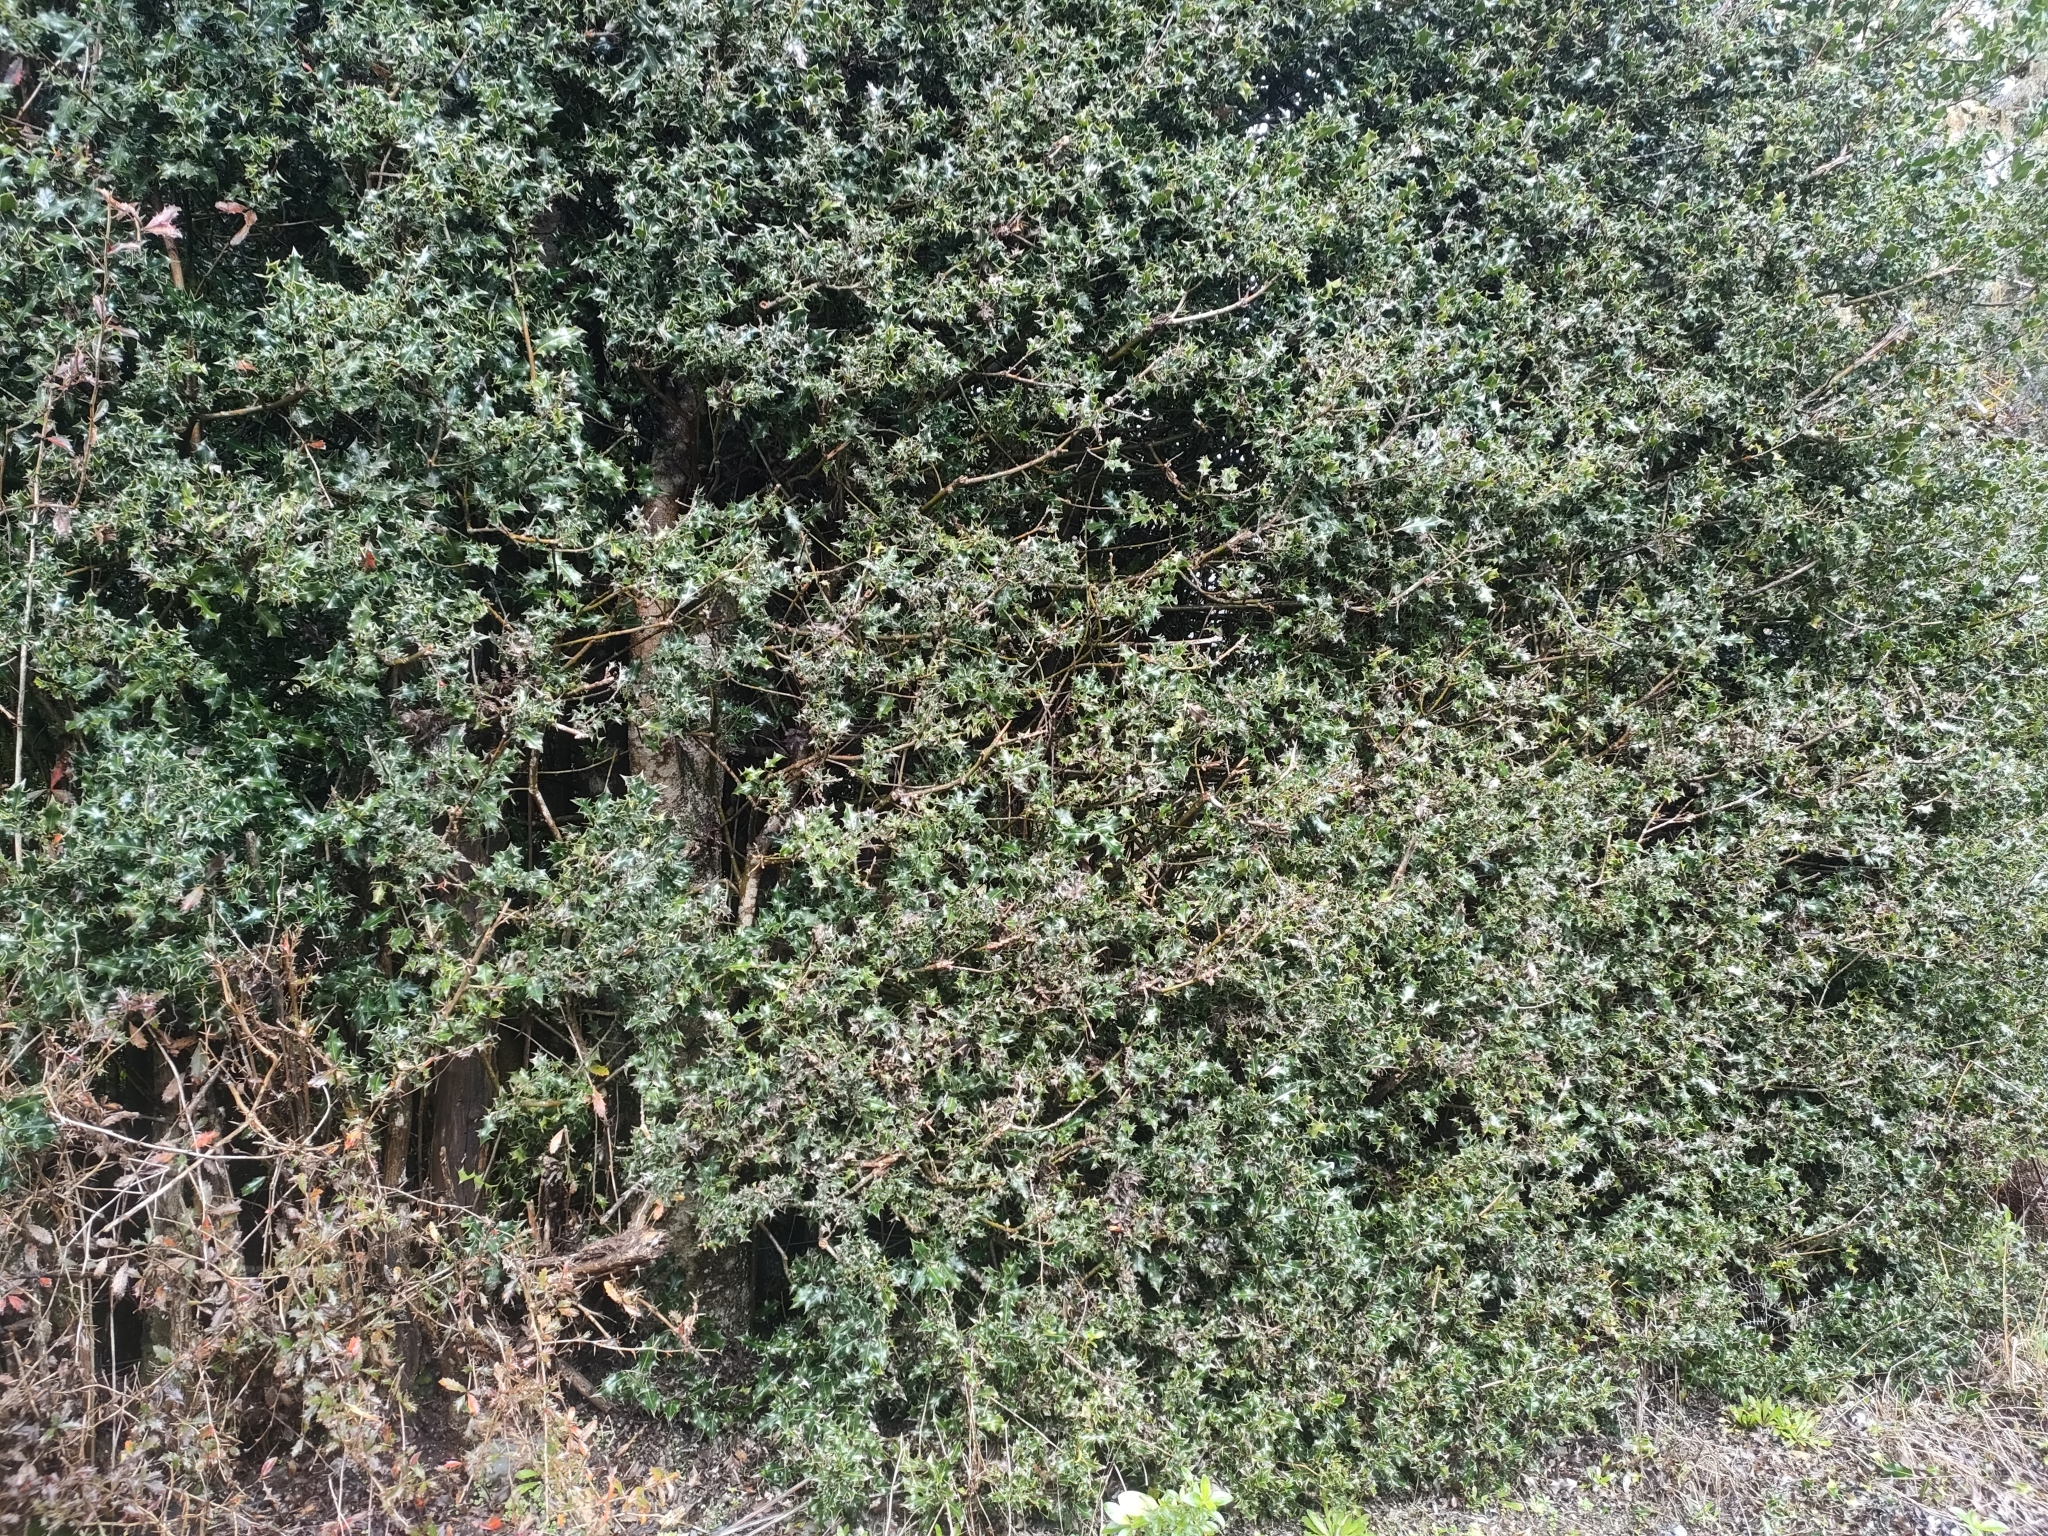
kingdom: Plantae
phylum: Tracheophyta
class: Magnoliopsida
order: Aquifoliales
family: Aquifoliaceae
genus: Ilex
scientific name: Ilex aquifolium
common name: English holly
